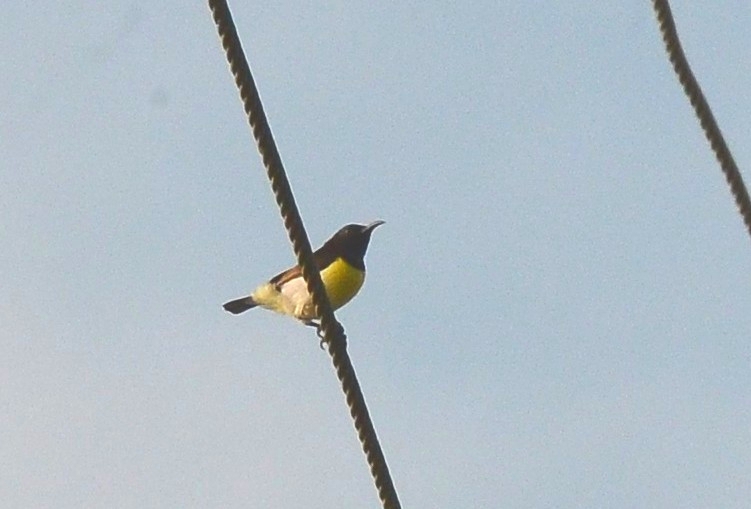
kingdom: Animalia
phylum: Chordata
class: Aves
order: Passeriformes
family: Nectariniidae
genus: Leptocoma
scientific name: Leptocoma zeylonica
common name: Purple-rumped sunbird
